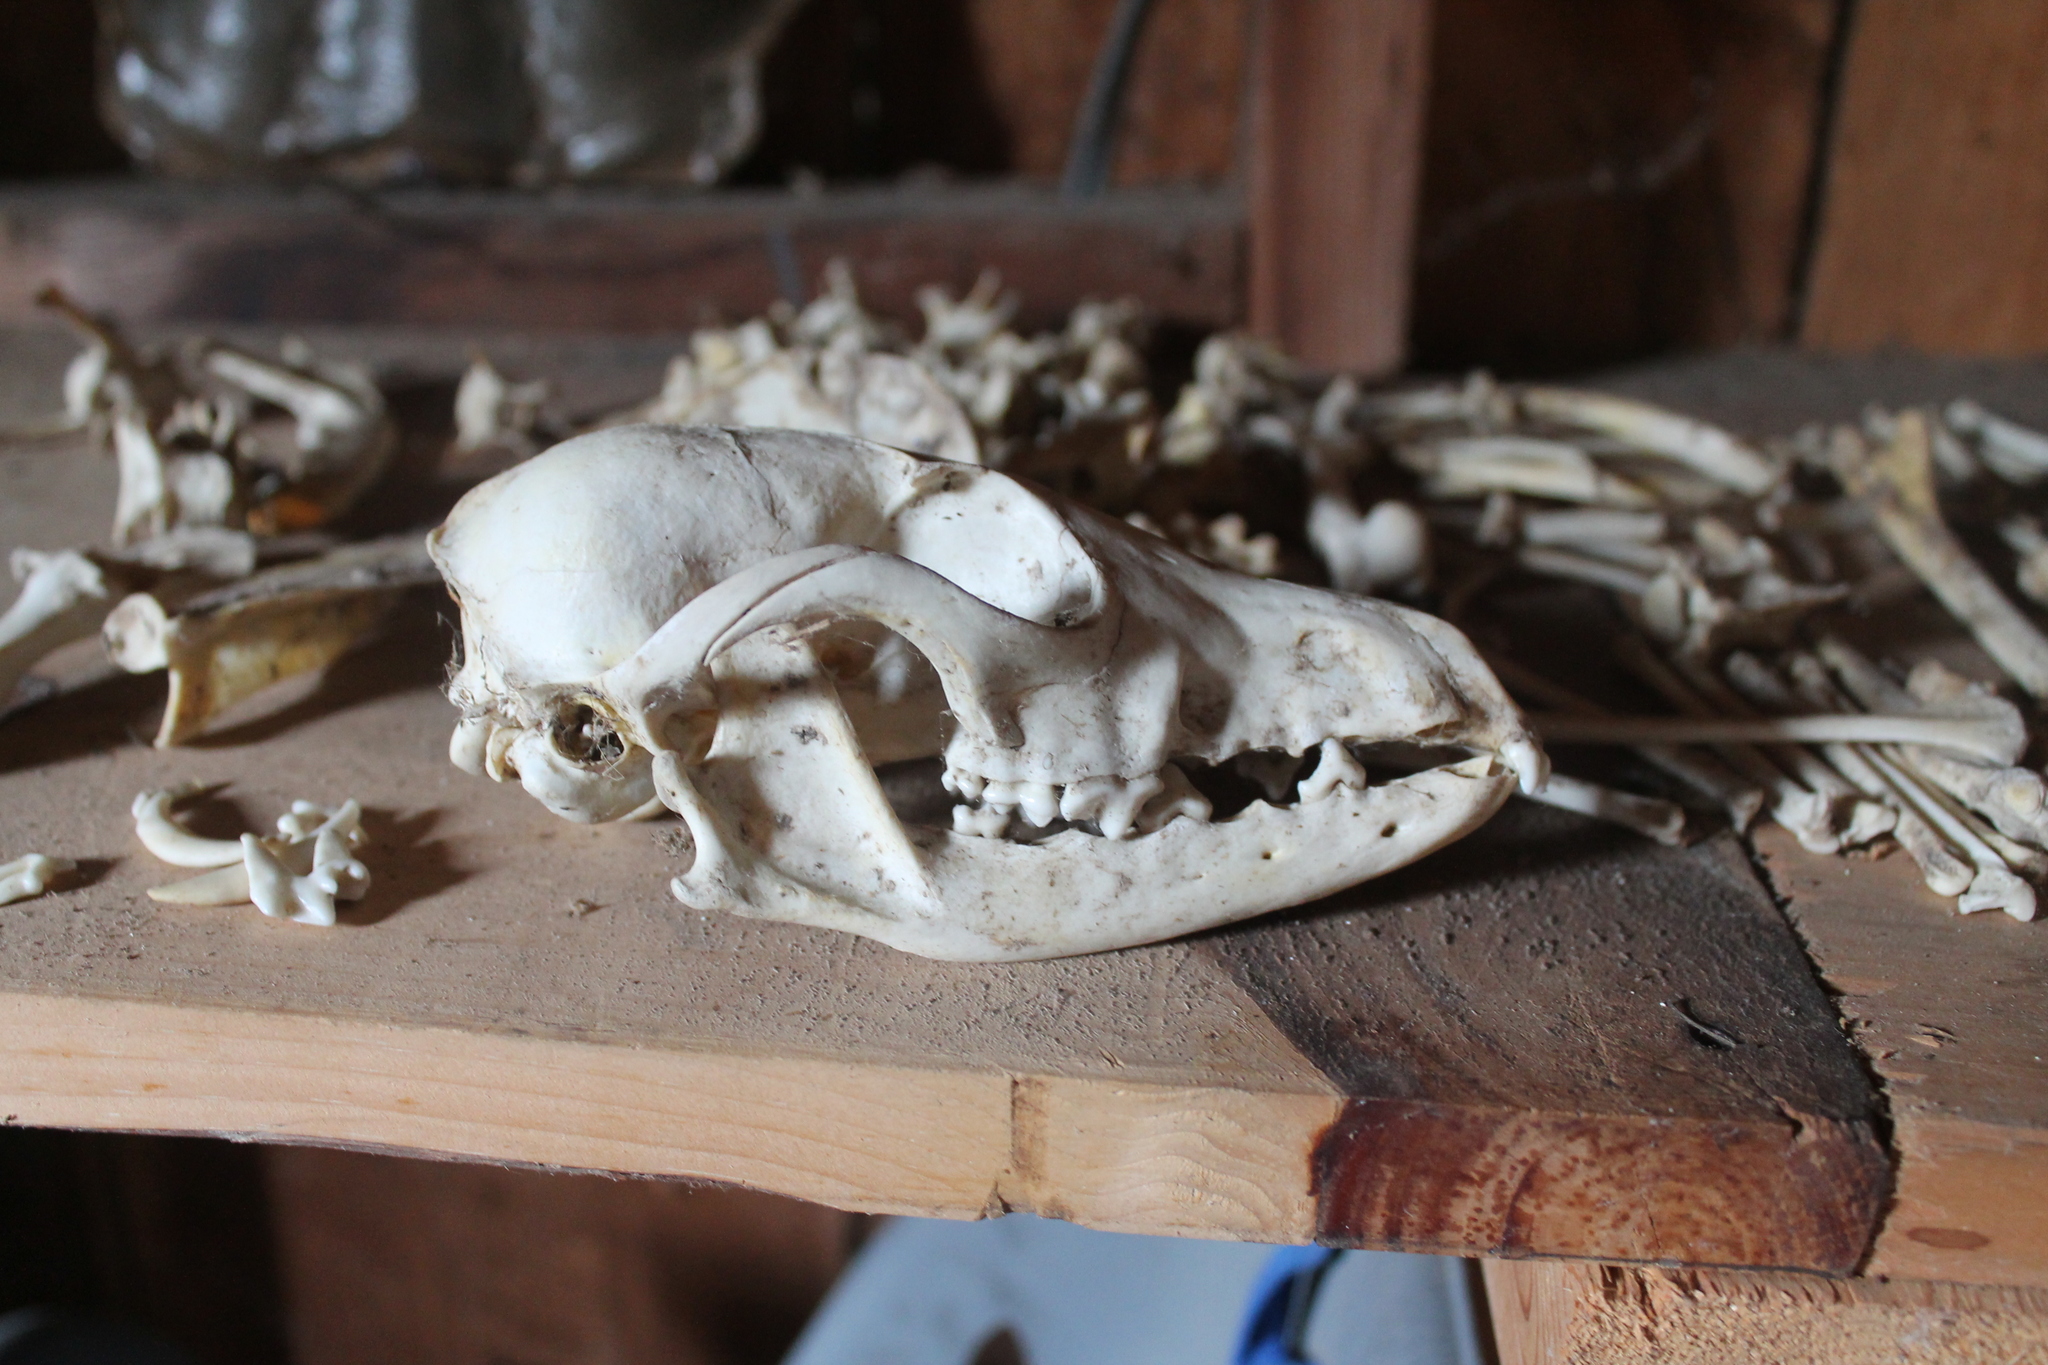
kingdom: Animalia
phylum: Chordata
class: Mammalia
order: Carnivora
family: Canidae
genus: Vulpes
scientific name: Vulpes vulpes
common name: Red fox
